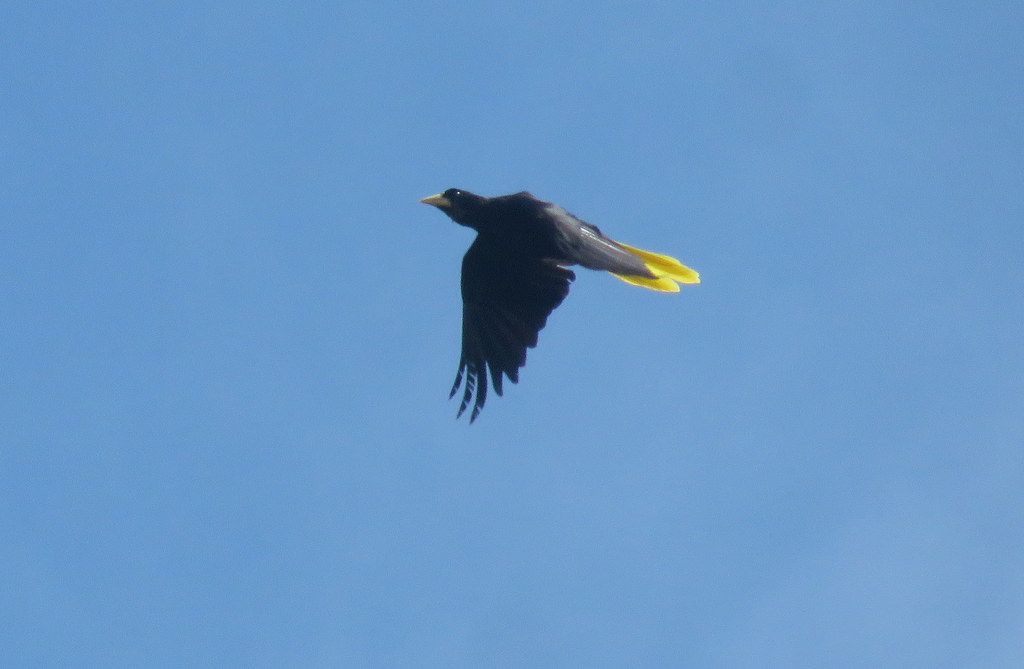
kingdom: Animalia
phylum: Chordata
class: Aves
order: Passeriformes
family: Icteridae
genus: Psarocolius
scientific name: Psarocolius decumanus
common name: Crested oropendola
